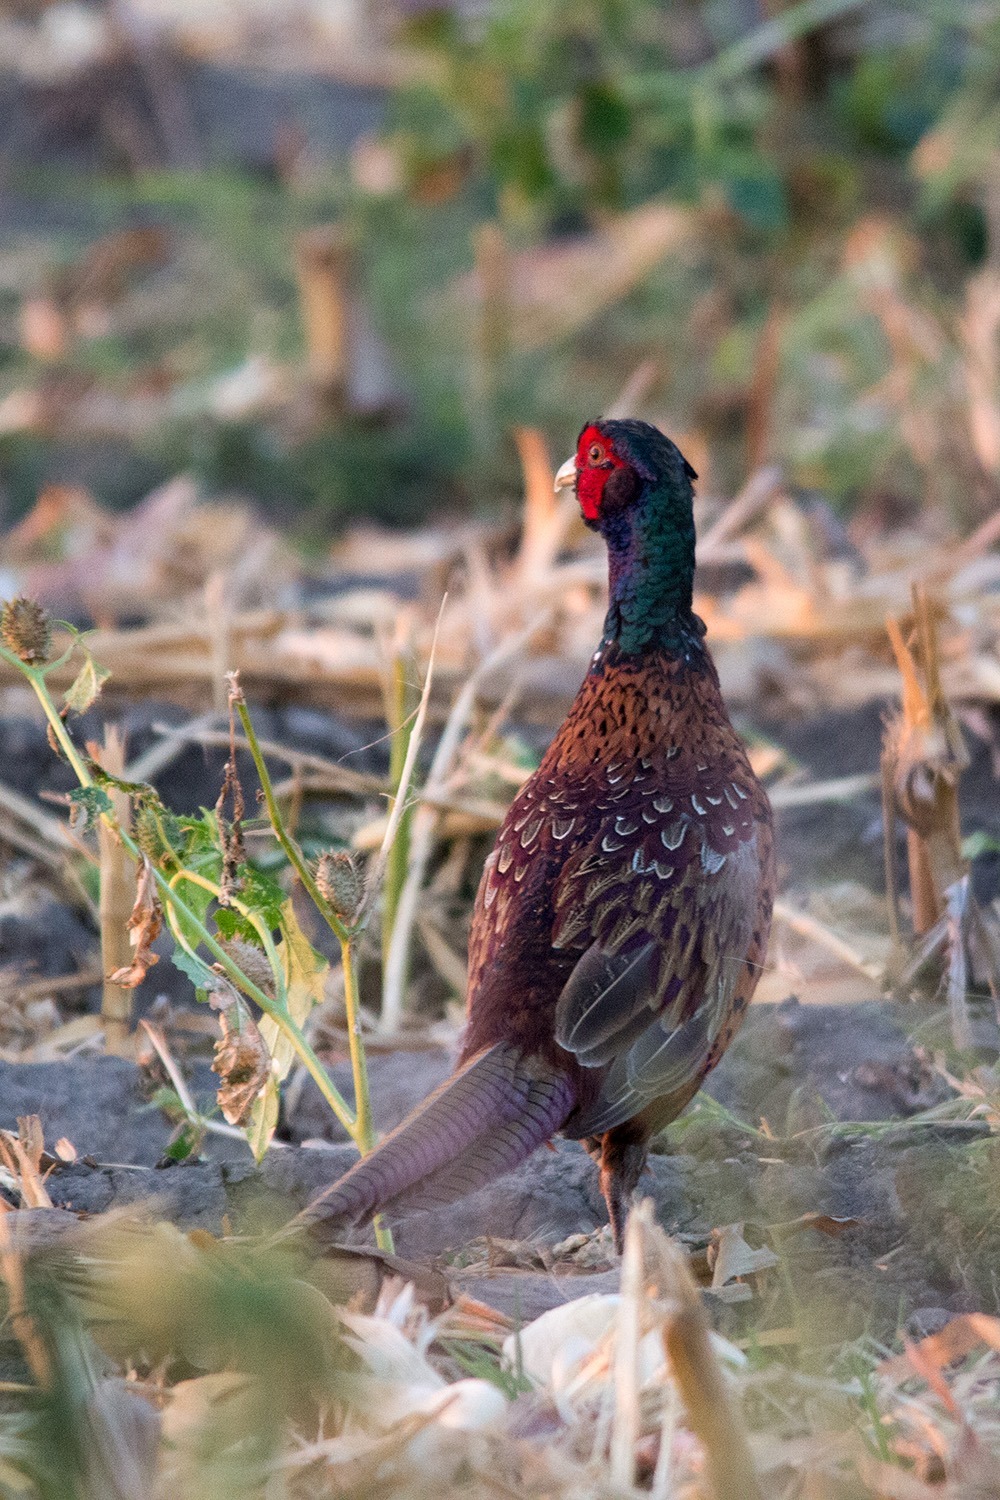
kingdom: Animalia
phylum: Chordata
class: Aves
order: Galliformes
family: Phasianidae
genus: Phasianus
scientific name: Phasianus colchicus
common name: Common pheasant
